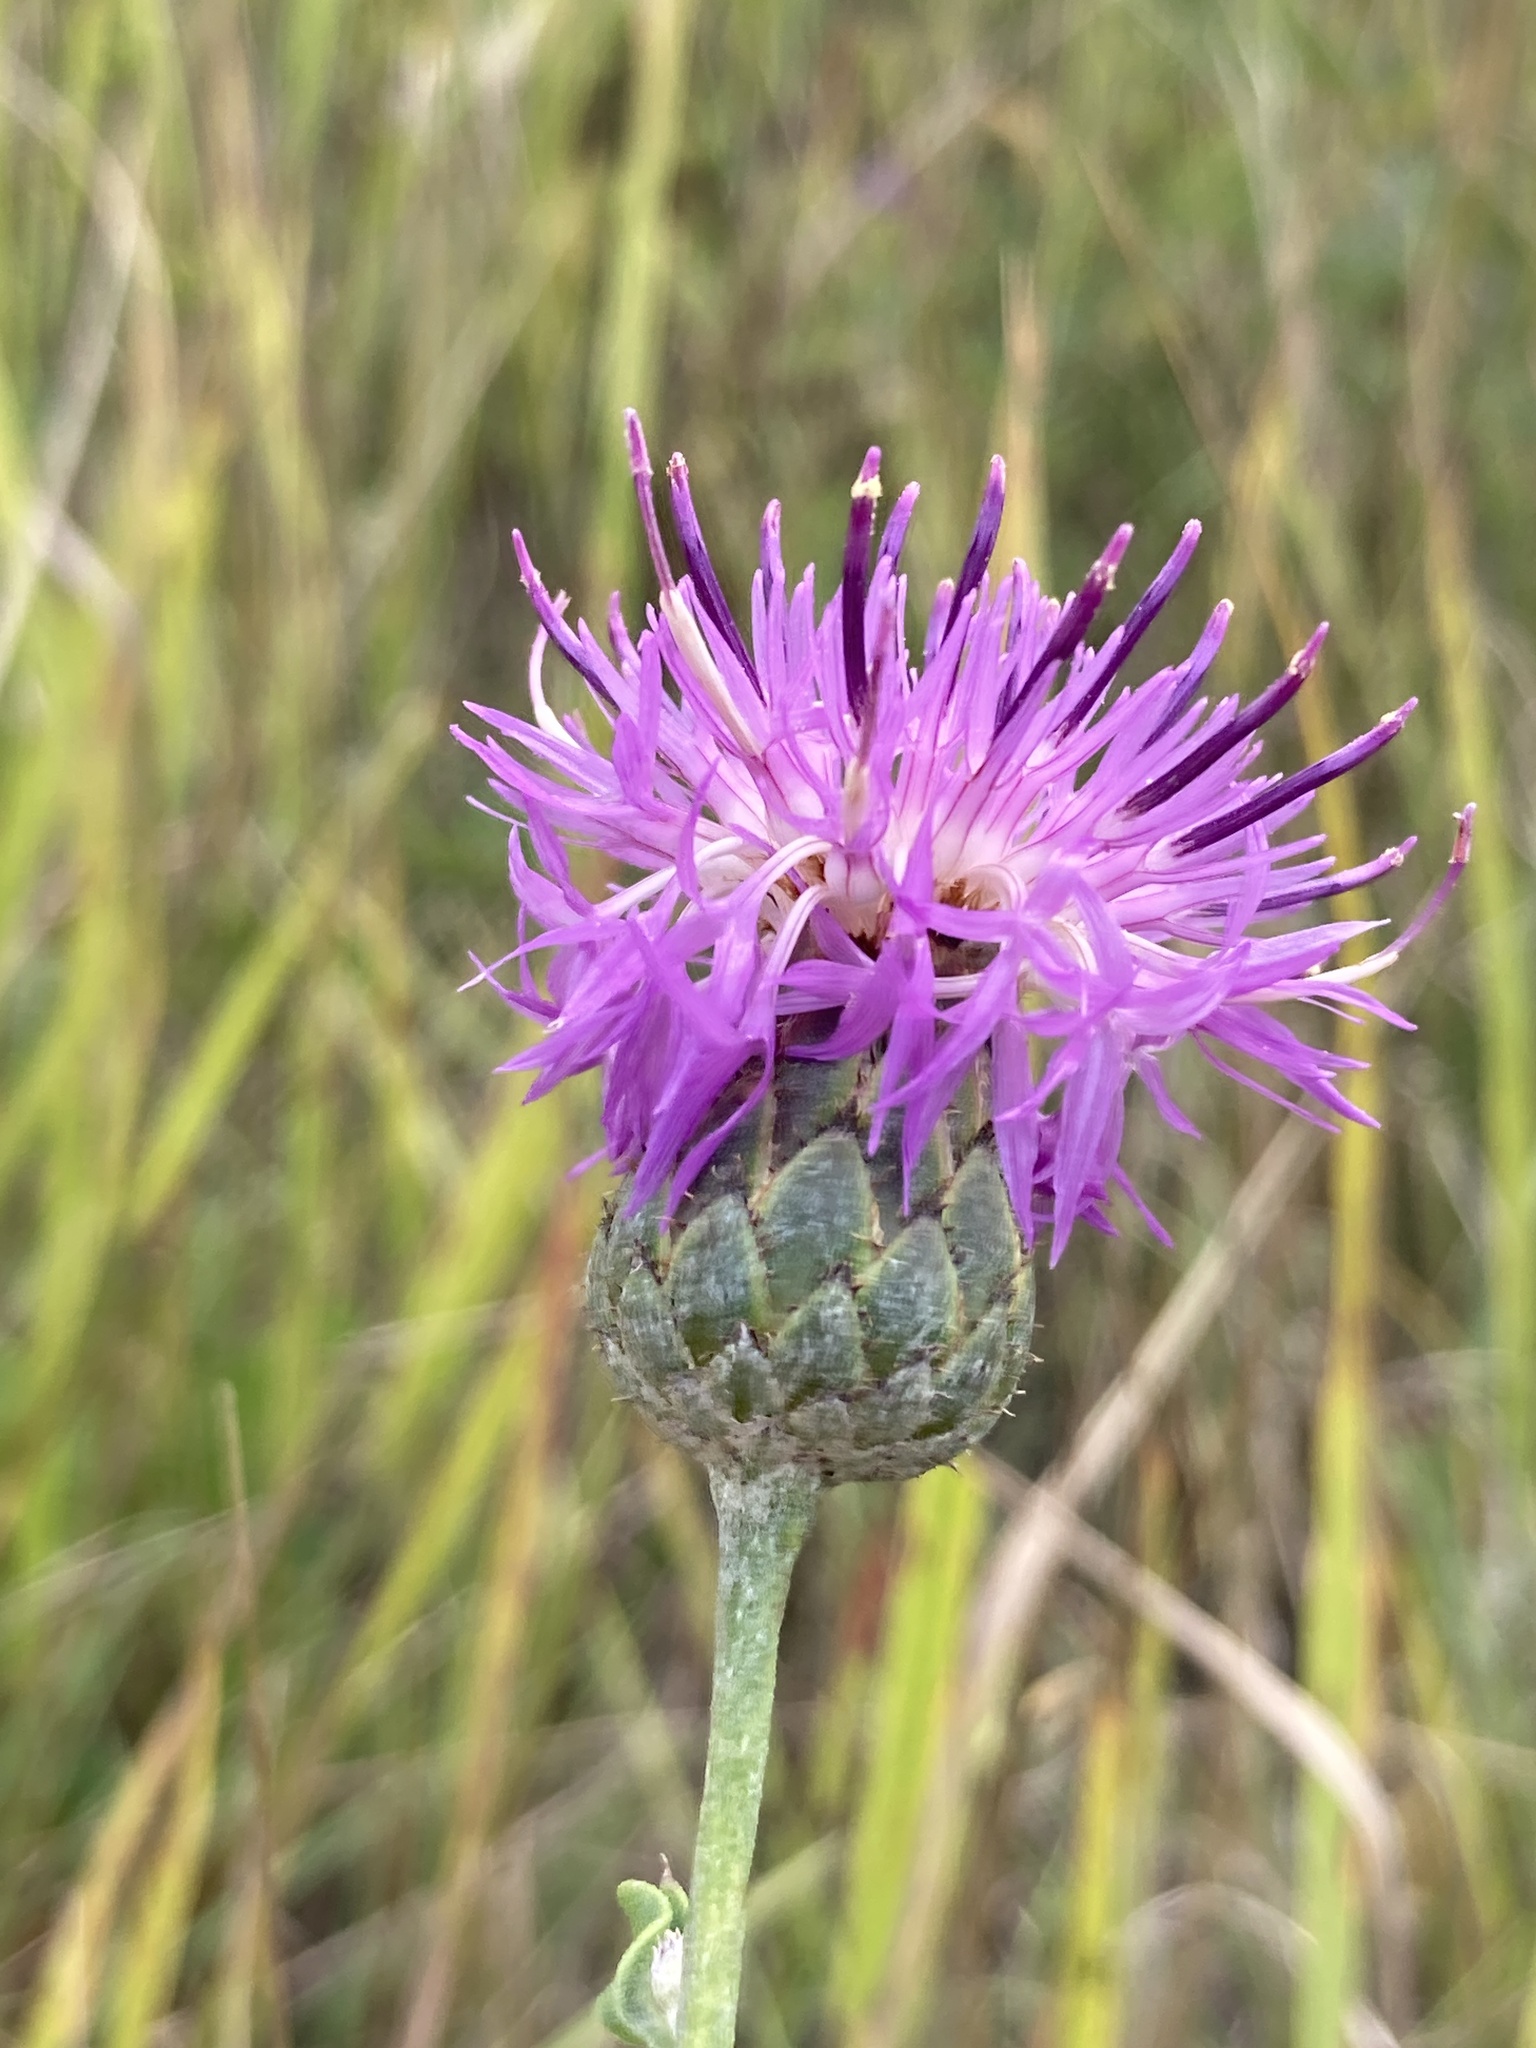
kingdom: Plantae
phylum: Tracheophyta
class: Magnoliopsida
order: Asterales
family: Asteraceae
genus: Centaurea
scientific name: Centaurea scabiosa
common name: Greater knapweed
